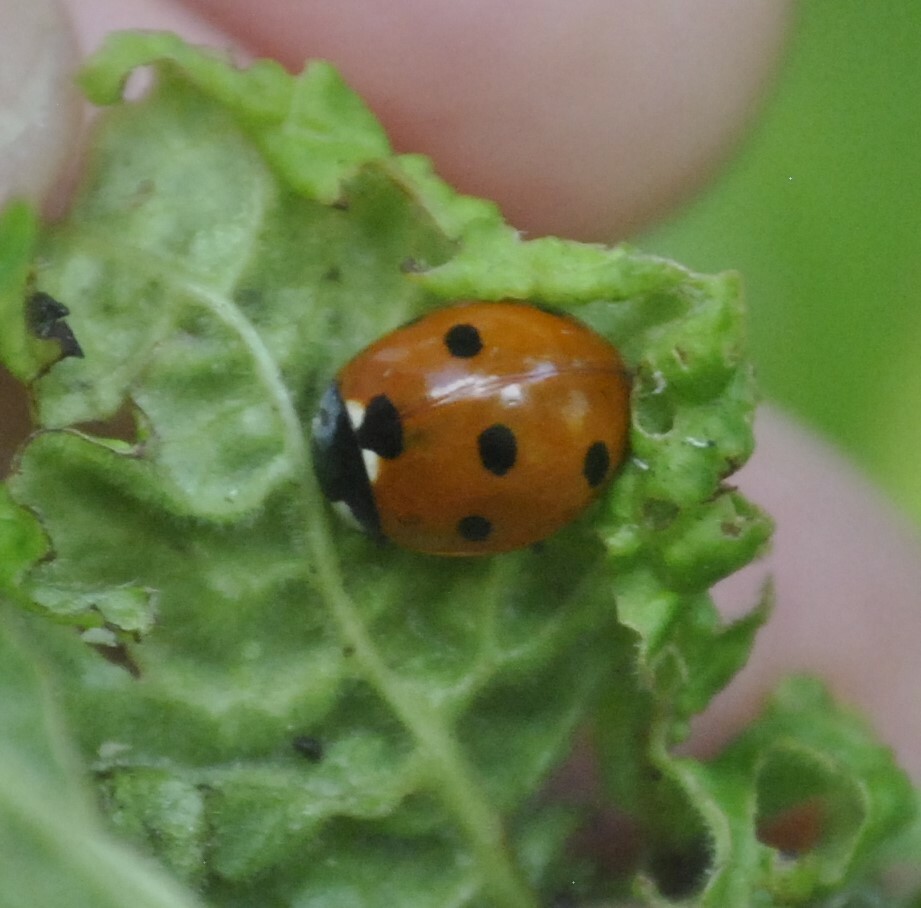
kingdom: Animalia
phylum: Arthropoda
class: Insecta
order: Coleoptera
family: Coccinellidae
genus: Coccinella
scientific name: Coccinella septempunctata
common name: Sevenspotted lady beetle
